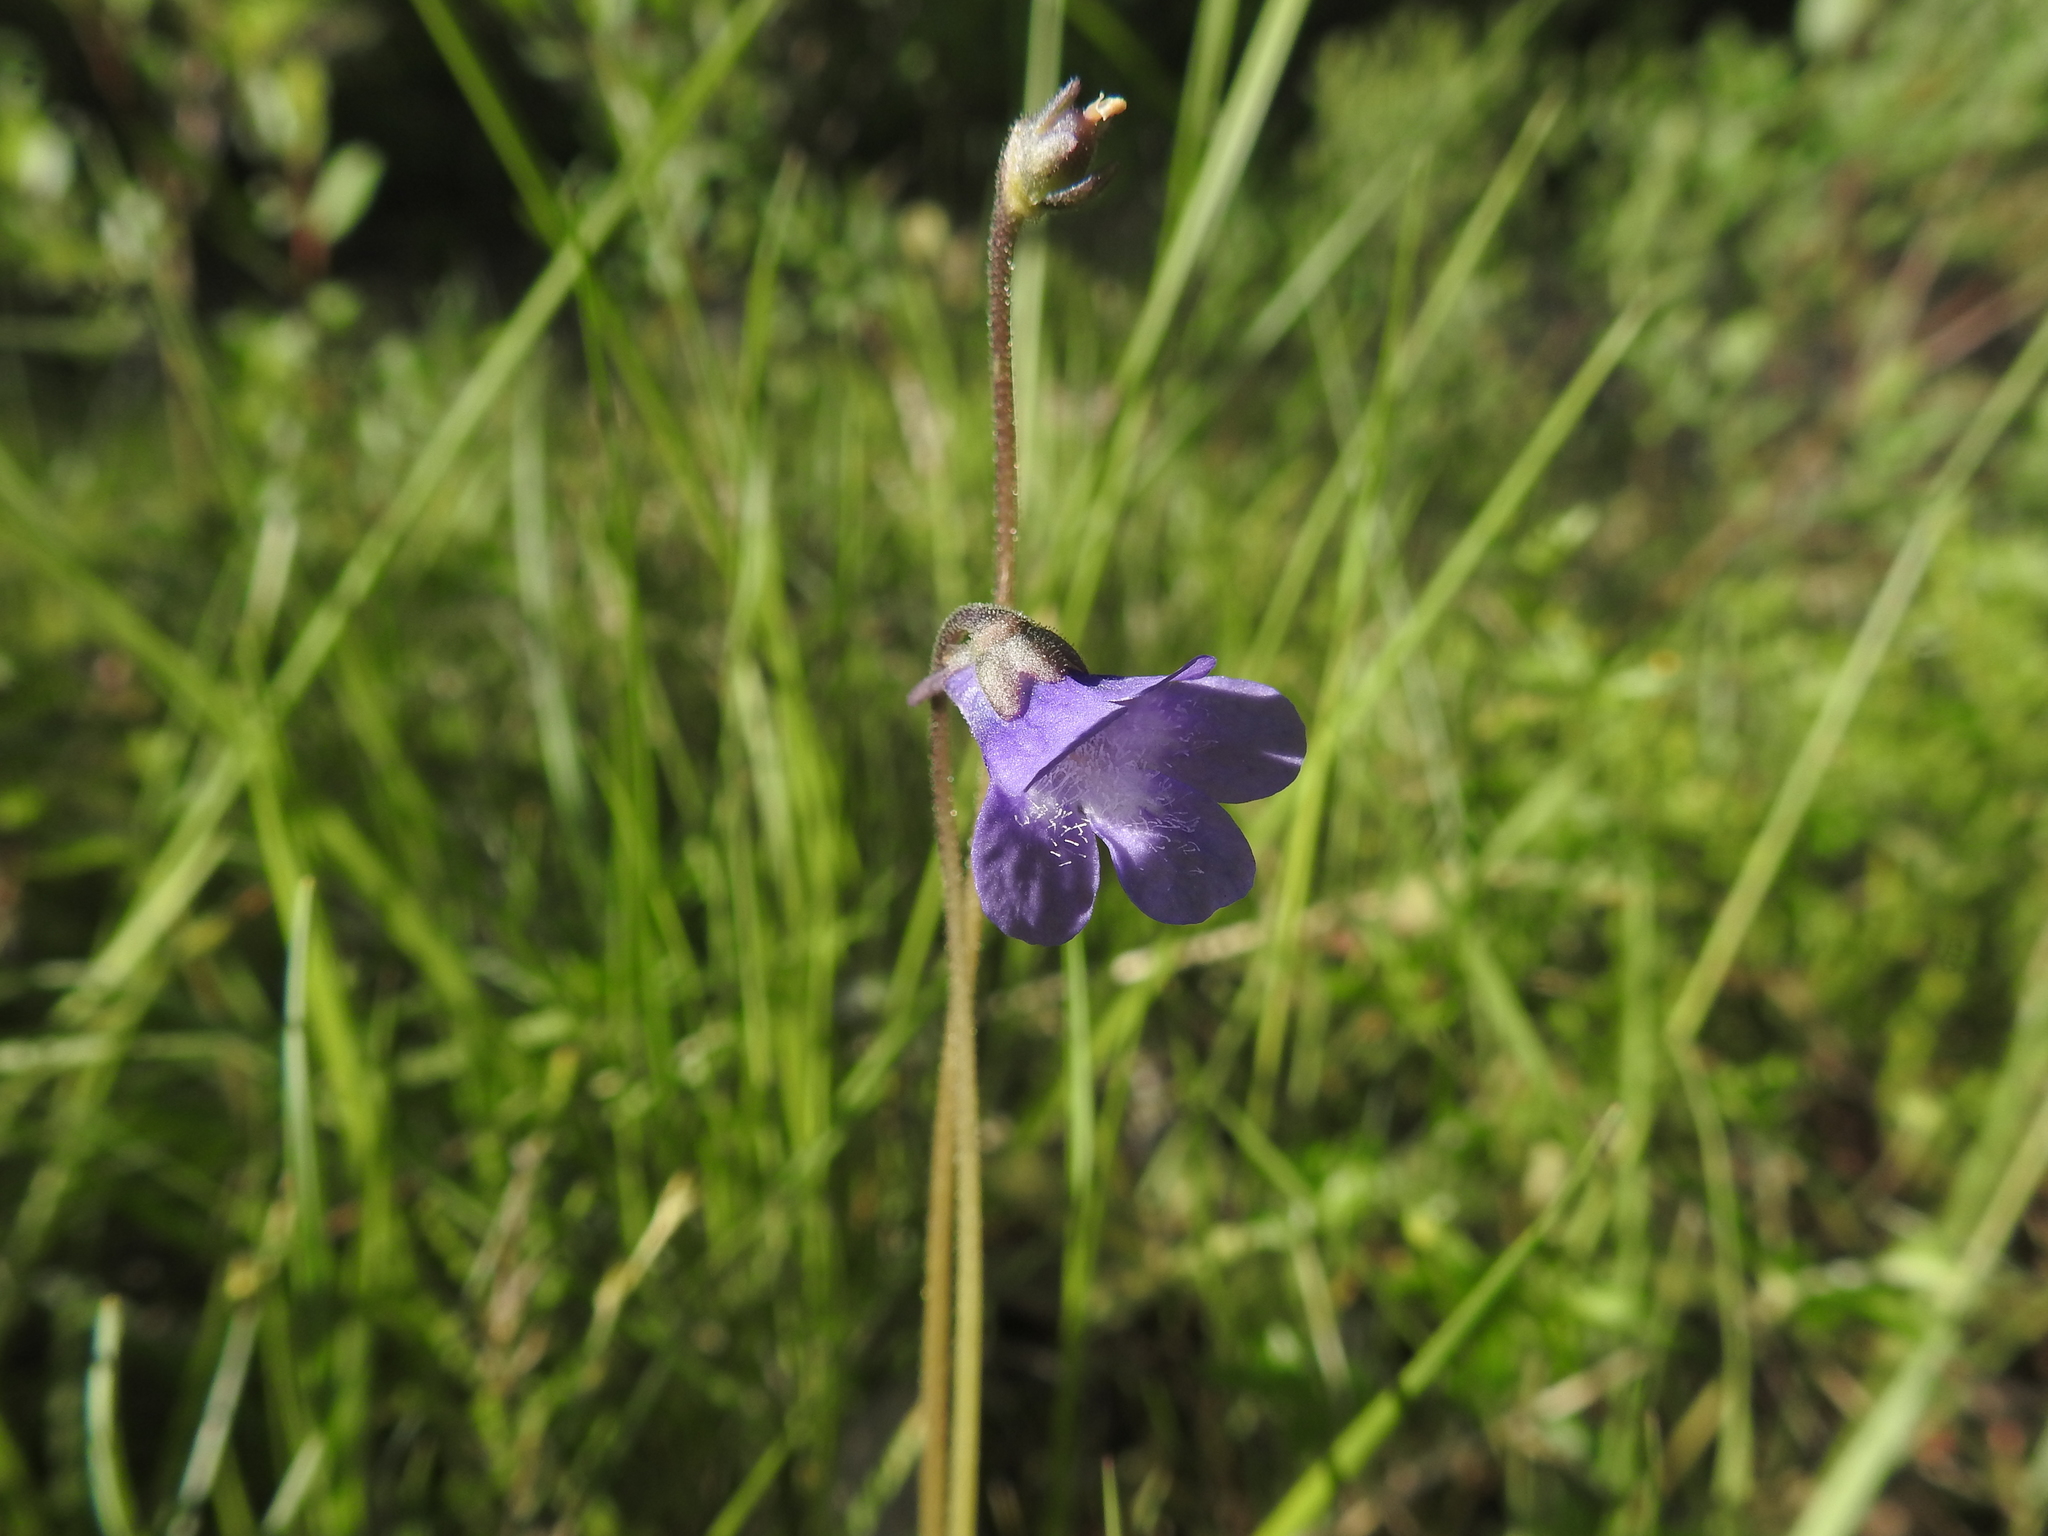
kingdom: Plantae
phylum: Tracheophyta
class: Magnoliopsida
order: Lamiales
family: Lentibulariaceae
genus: Pinguicula
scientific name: Pinguicula vulgaris
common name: Common butterwort
